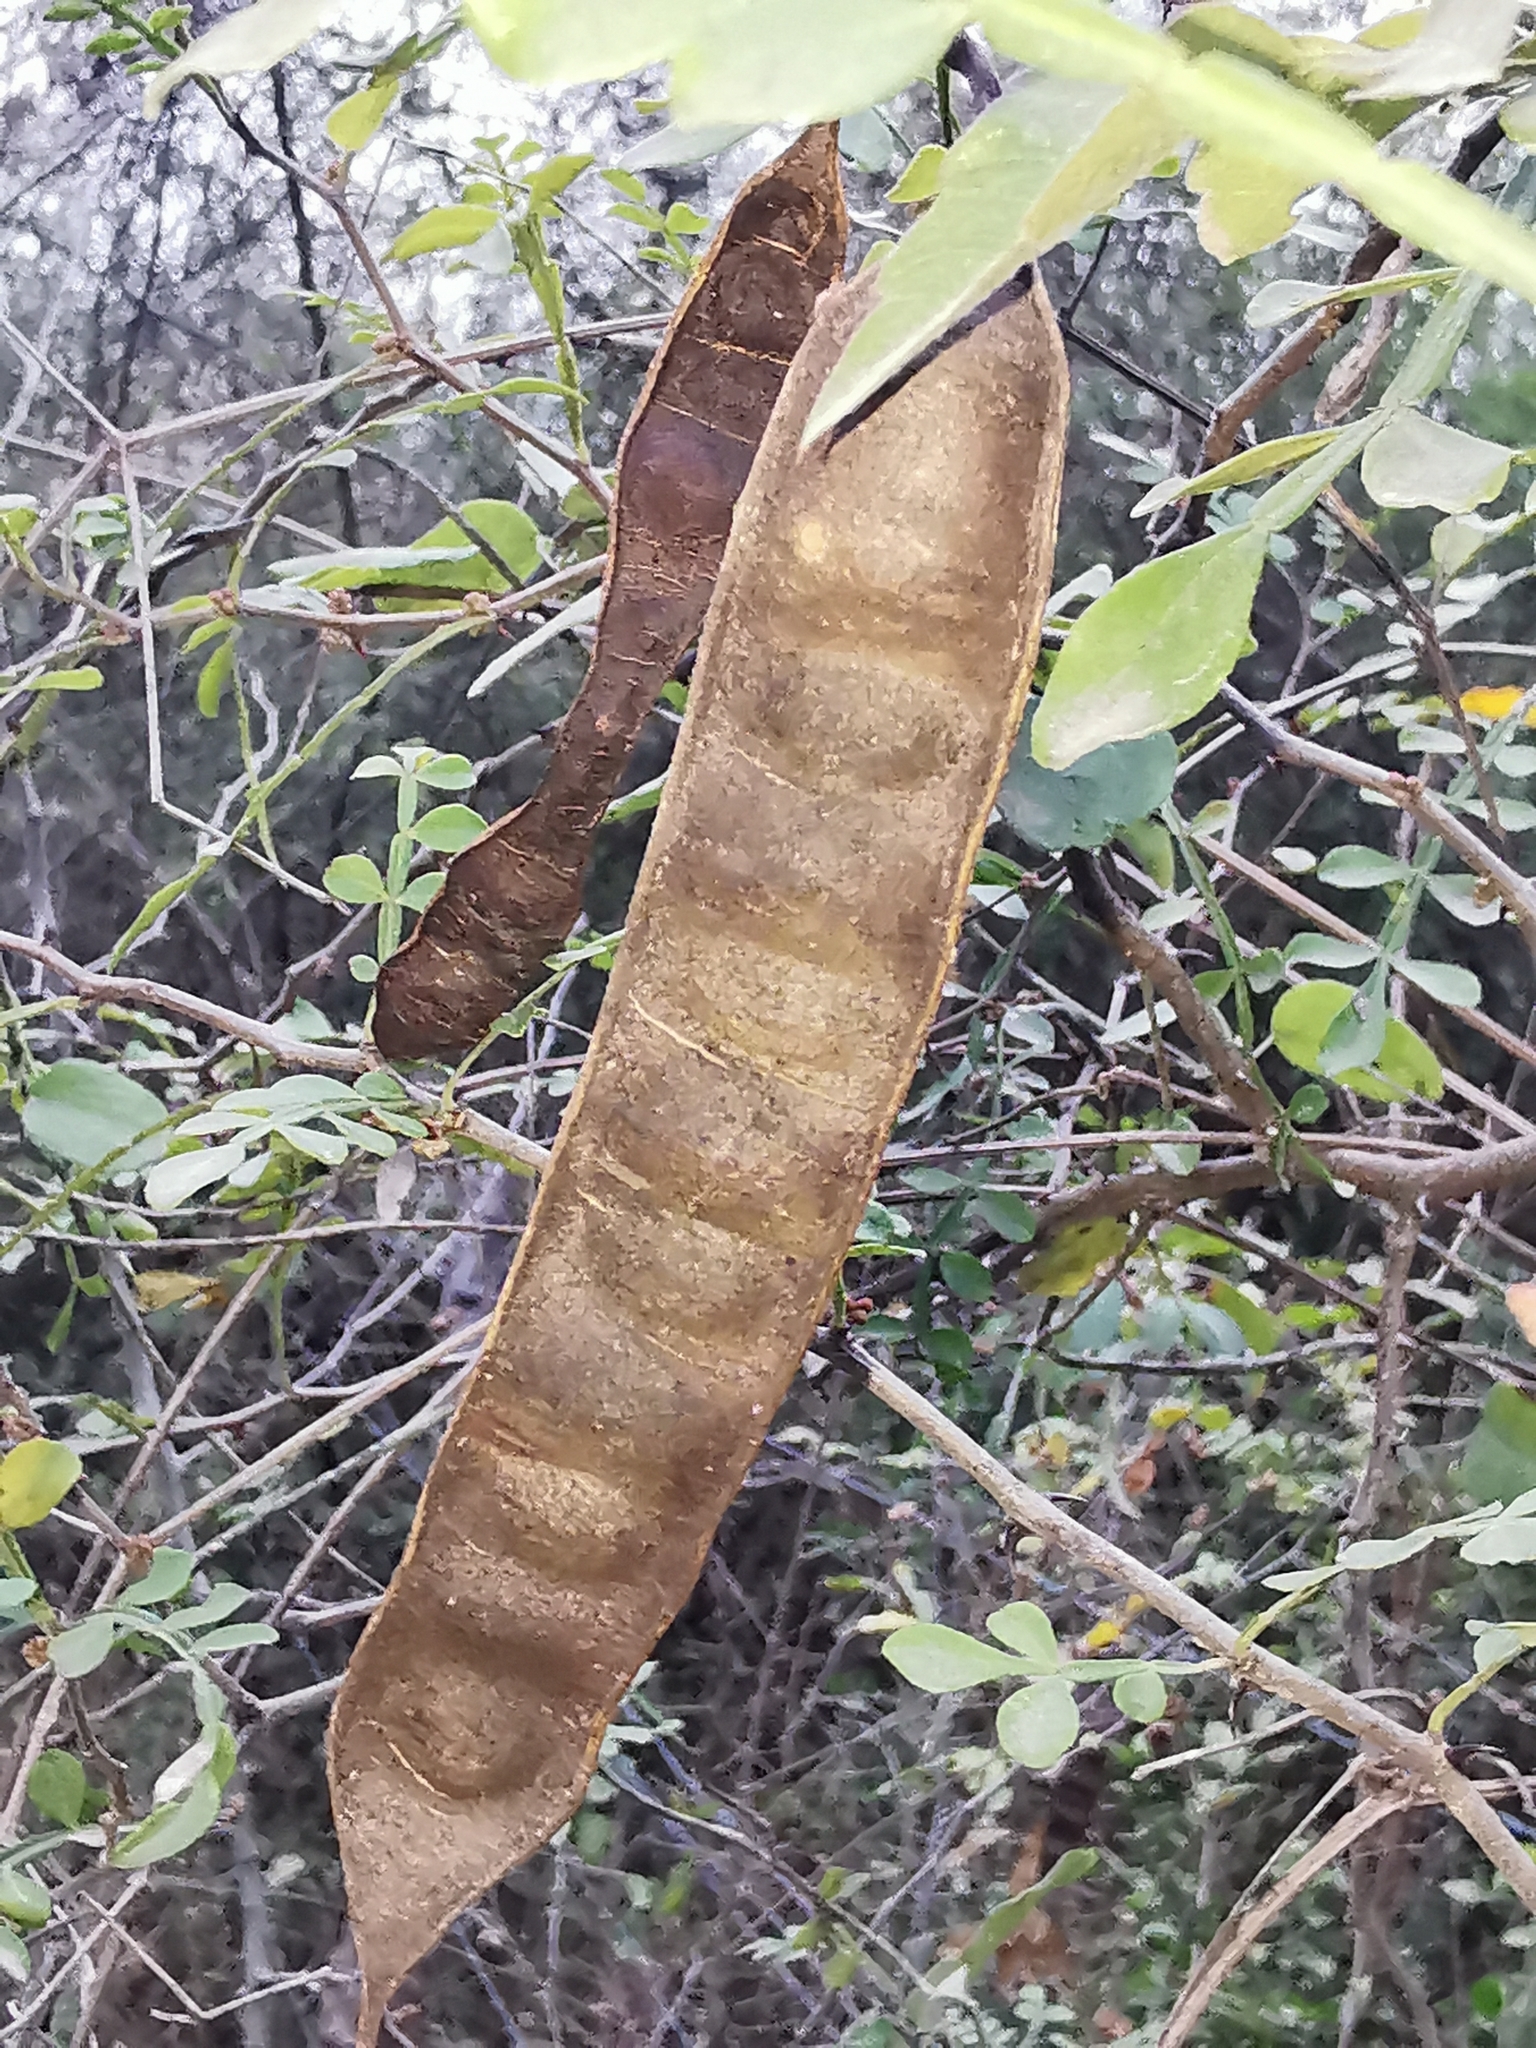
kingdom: Plantae
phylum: Tracheophyta
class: Magnoliopsida
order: Sapindales
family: Rutaceae
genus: Zanthoxylum
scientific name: Zanthoxylum fagara
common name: Lime prickly-ash
